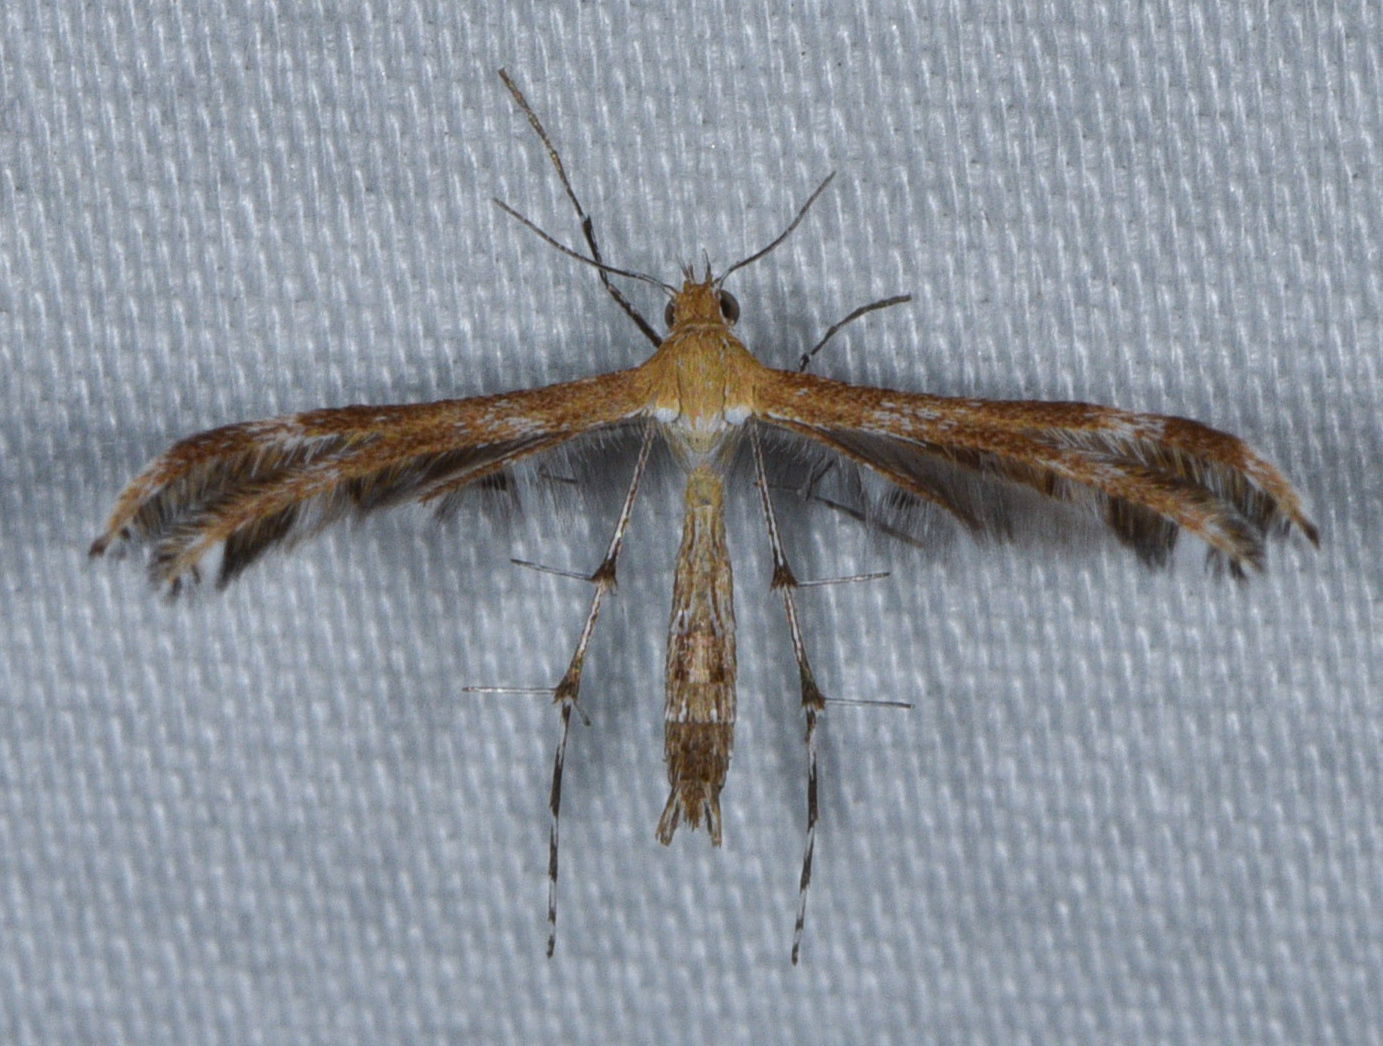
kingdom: Animalia
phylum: Arthropoda
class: Insecta
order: Lepidoptera
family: Pterophoridae
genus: Dejongia
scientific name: Dejongia californicus
